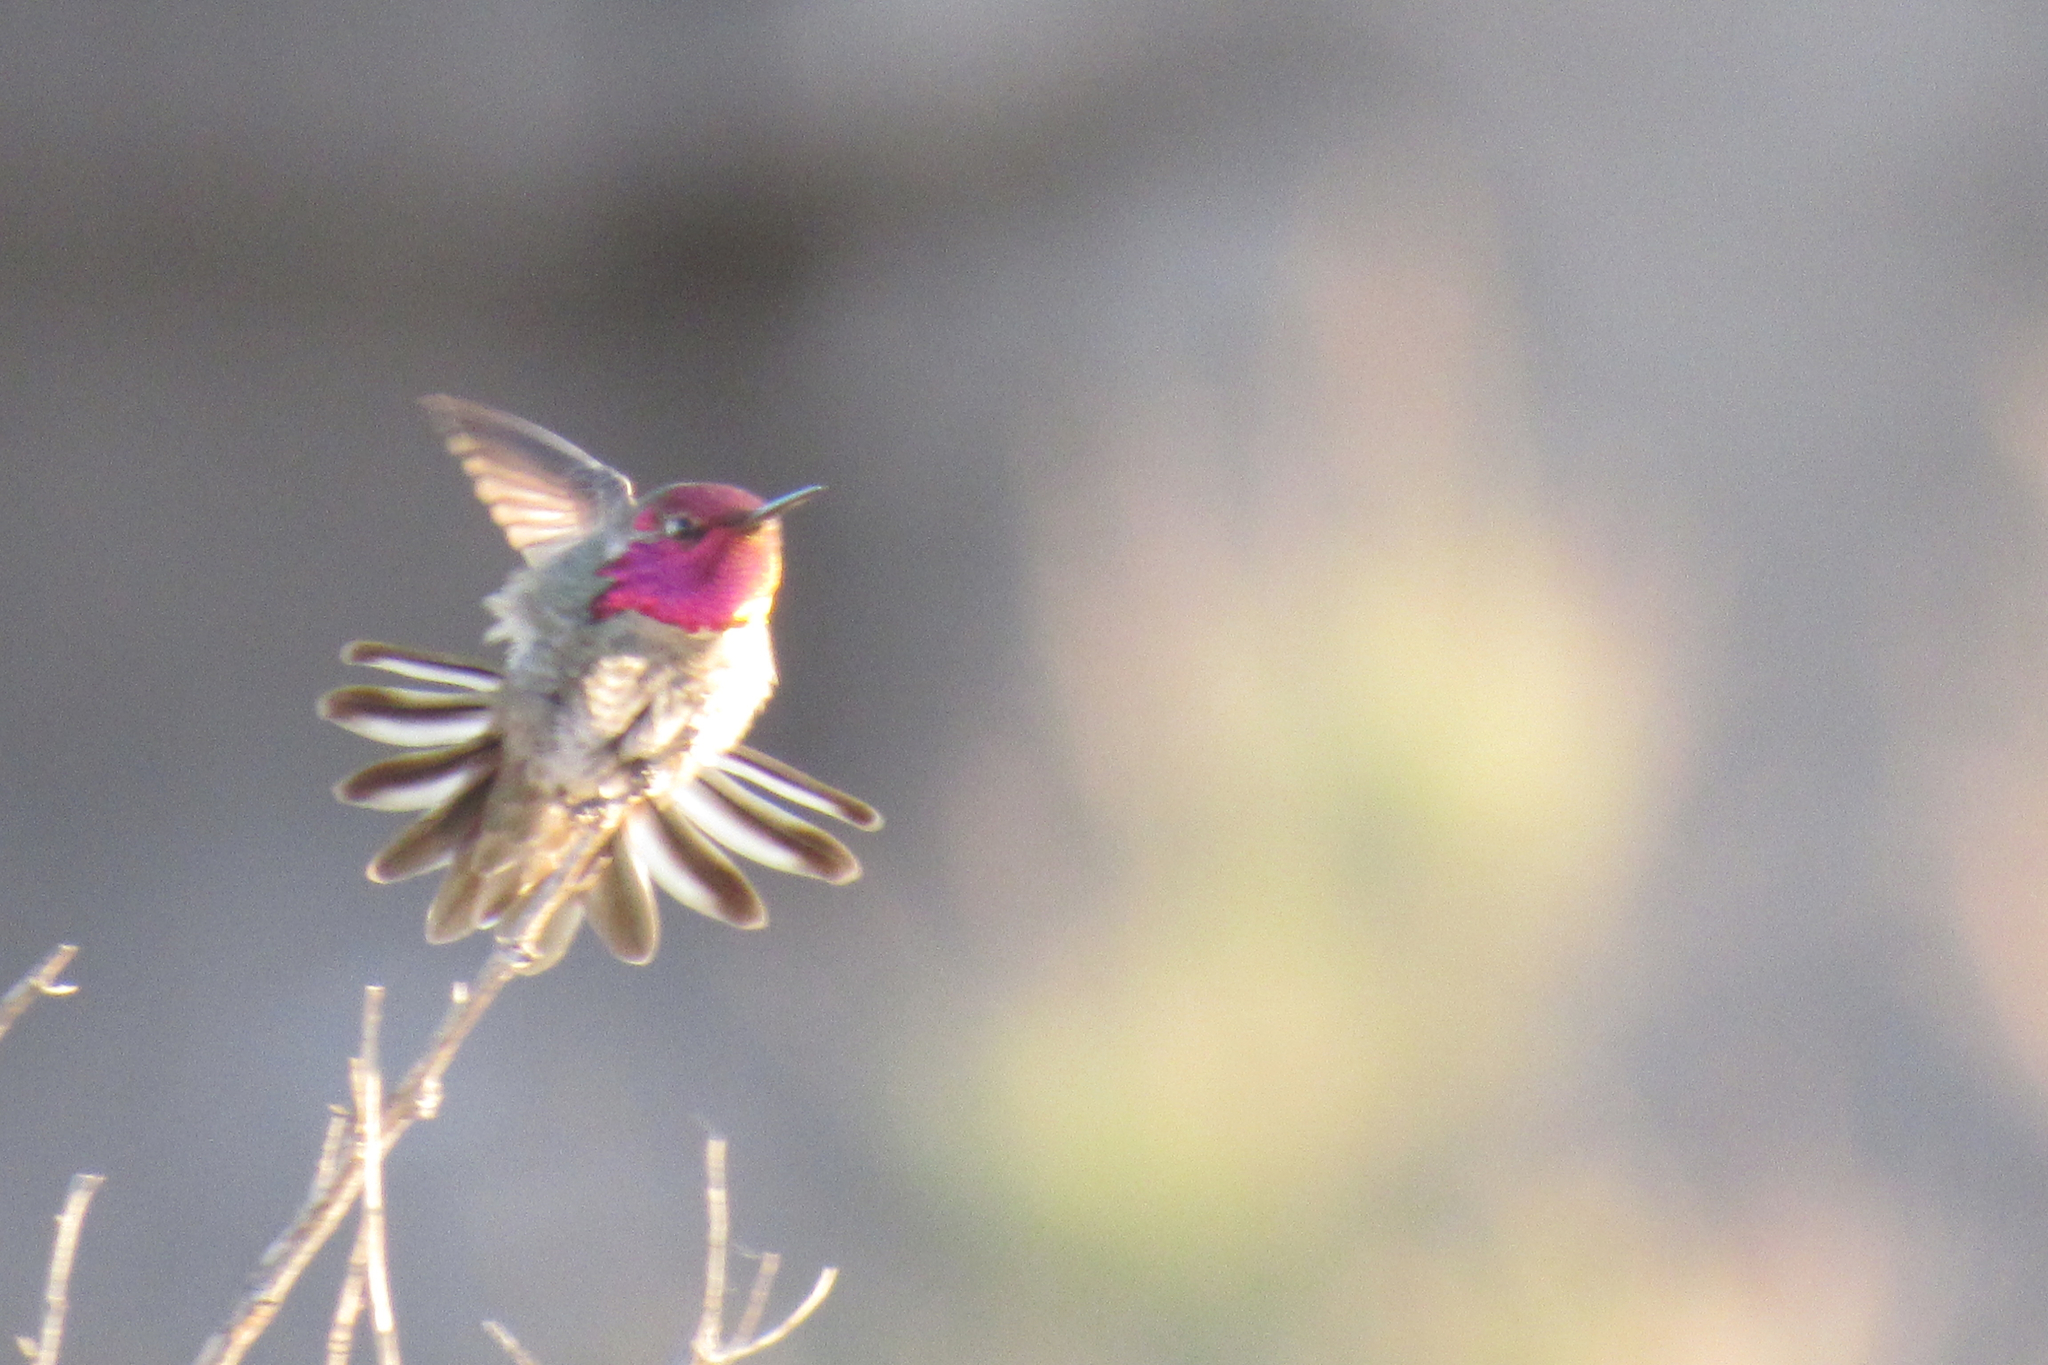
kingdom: Animalia
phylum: Chordata
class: Aves
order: Apodiformes
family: Trochilidae
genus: Calypte
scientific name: Calypte anna
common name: Anna's hummingbird
